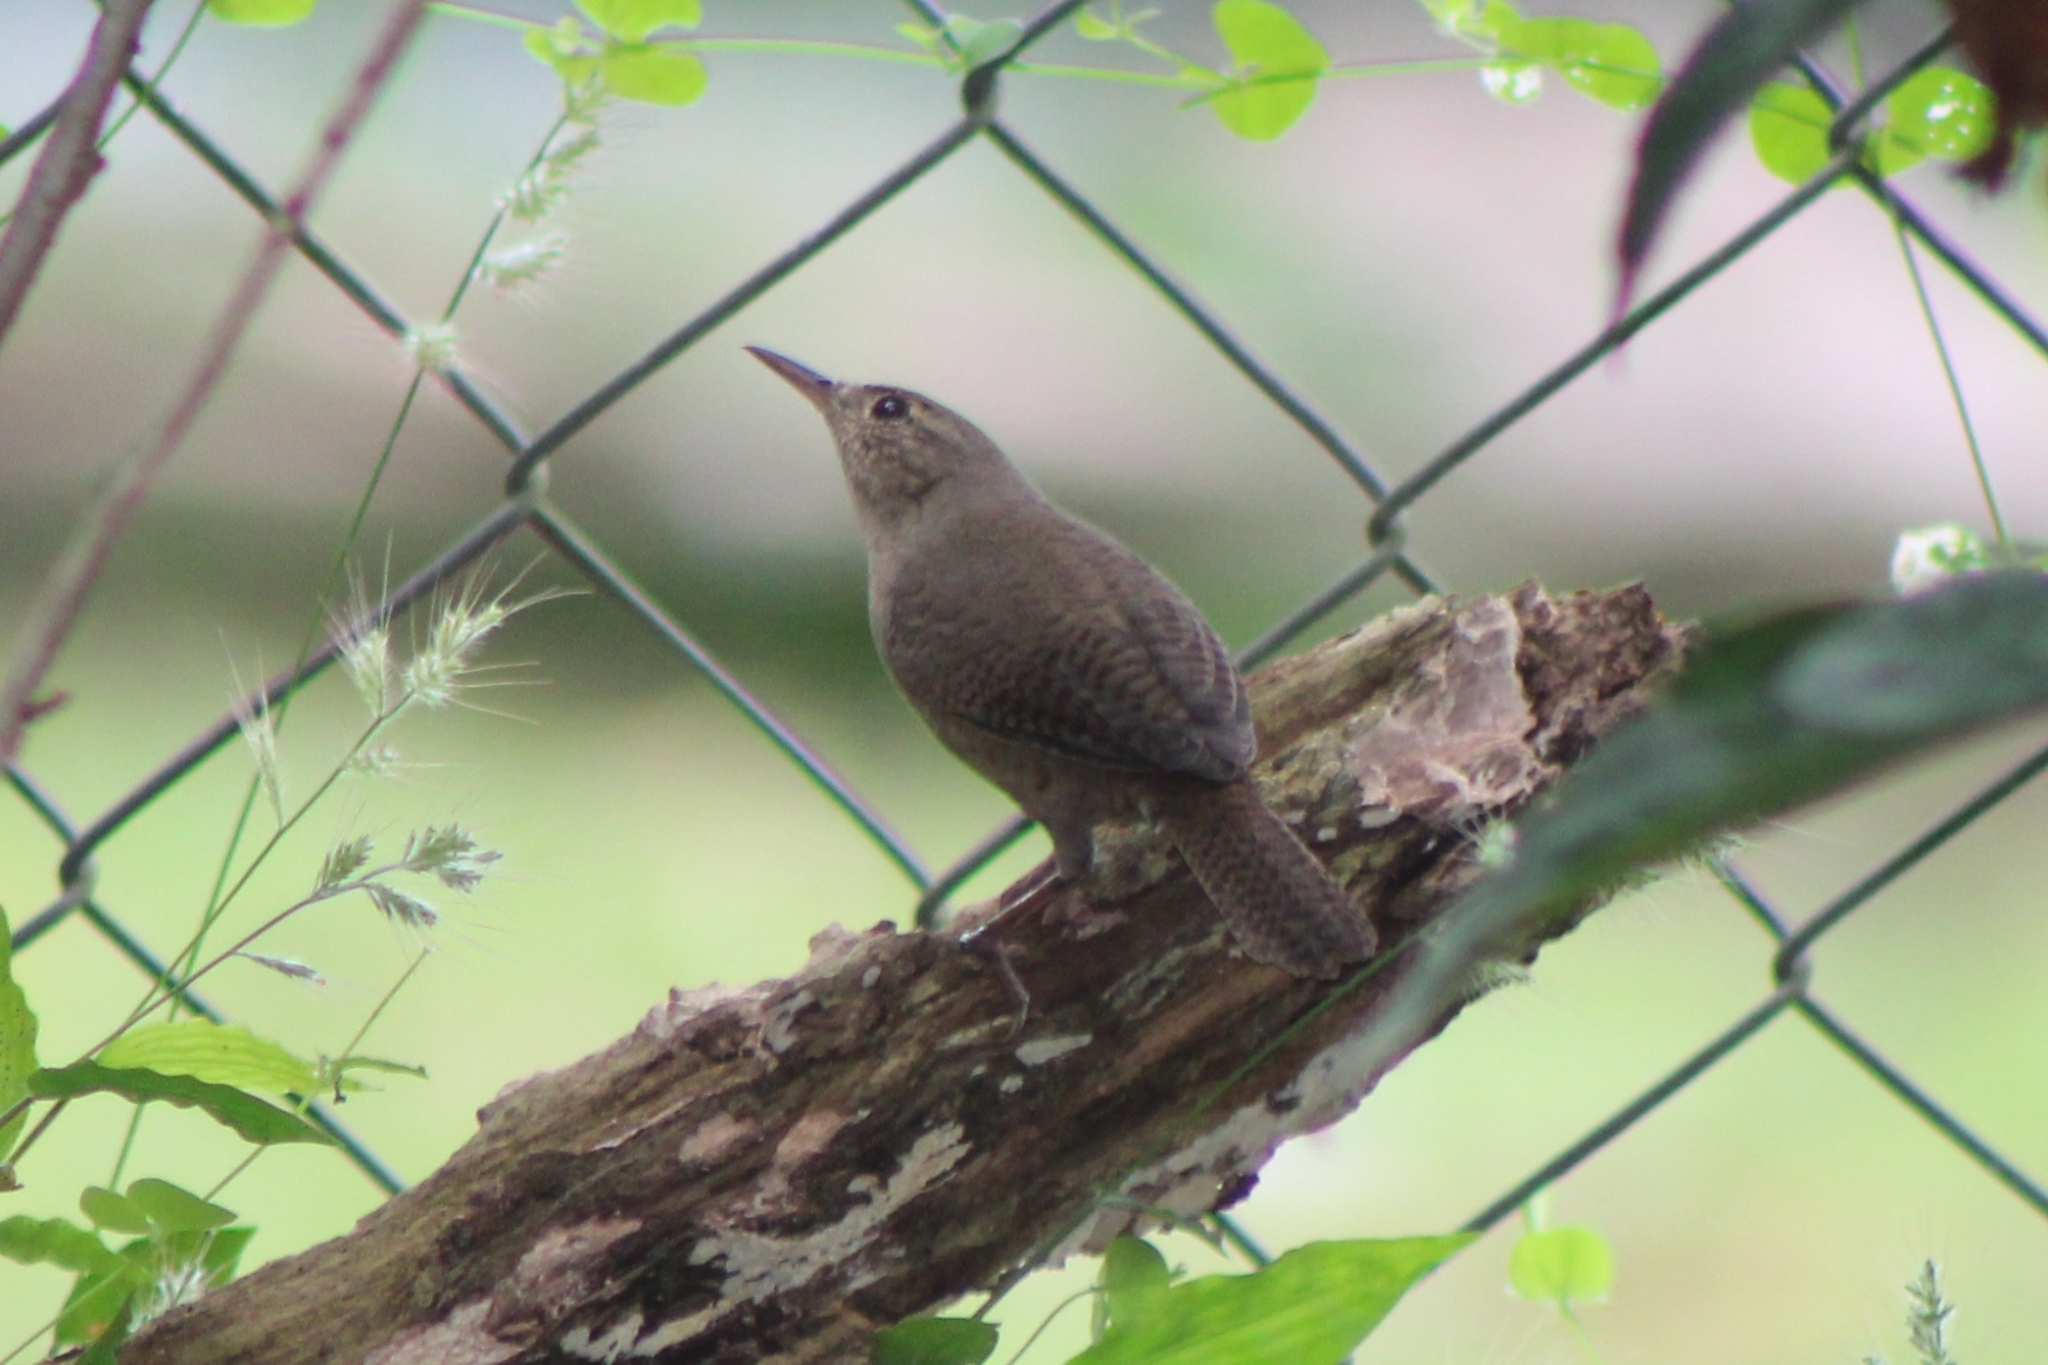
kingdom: Animalia
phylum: Chordata
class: Aves
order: Passeriformes
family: Troglodytidae
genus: Troglodytes
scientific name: Troglodytes aedon
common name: House wren
